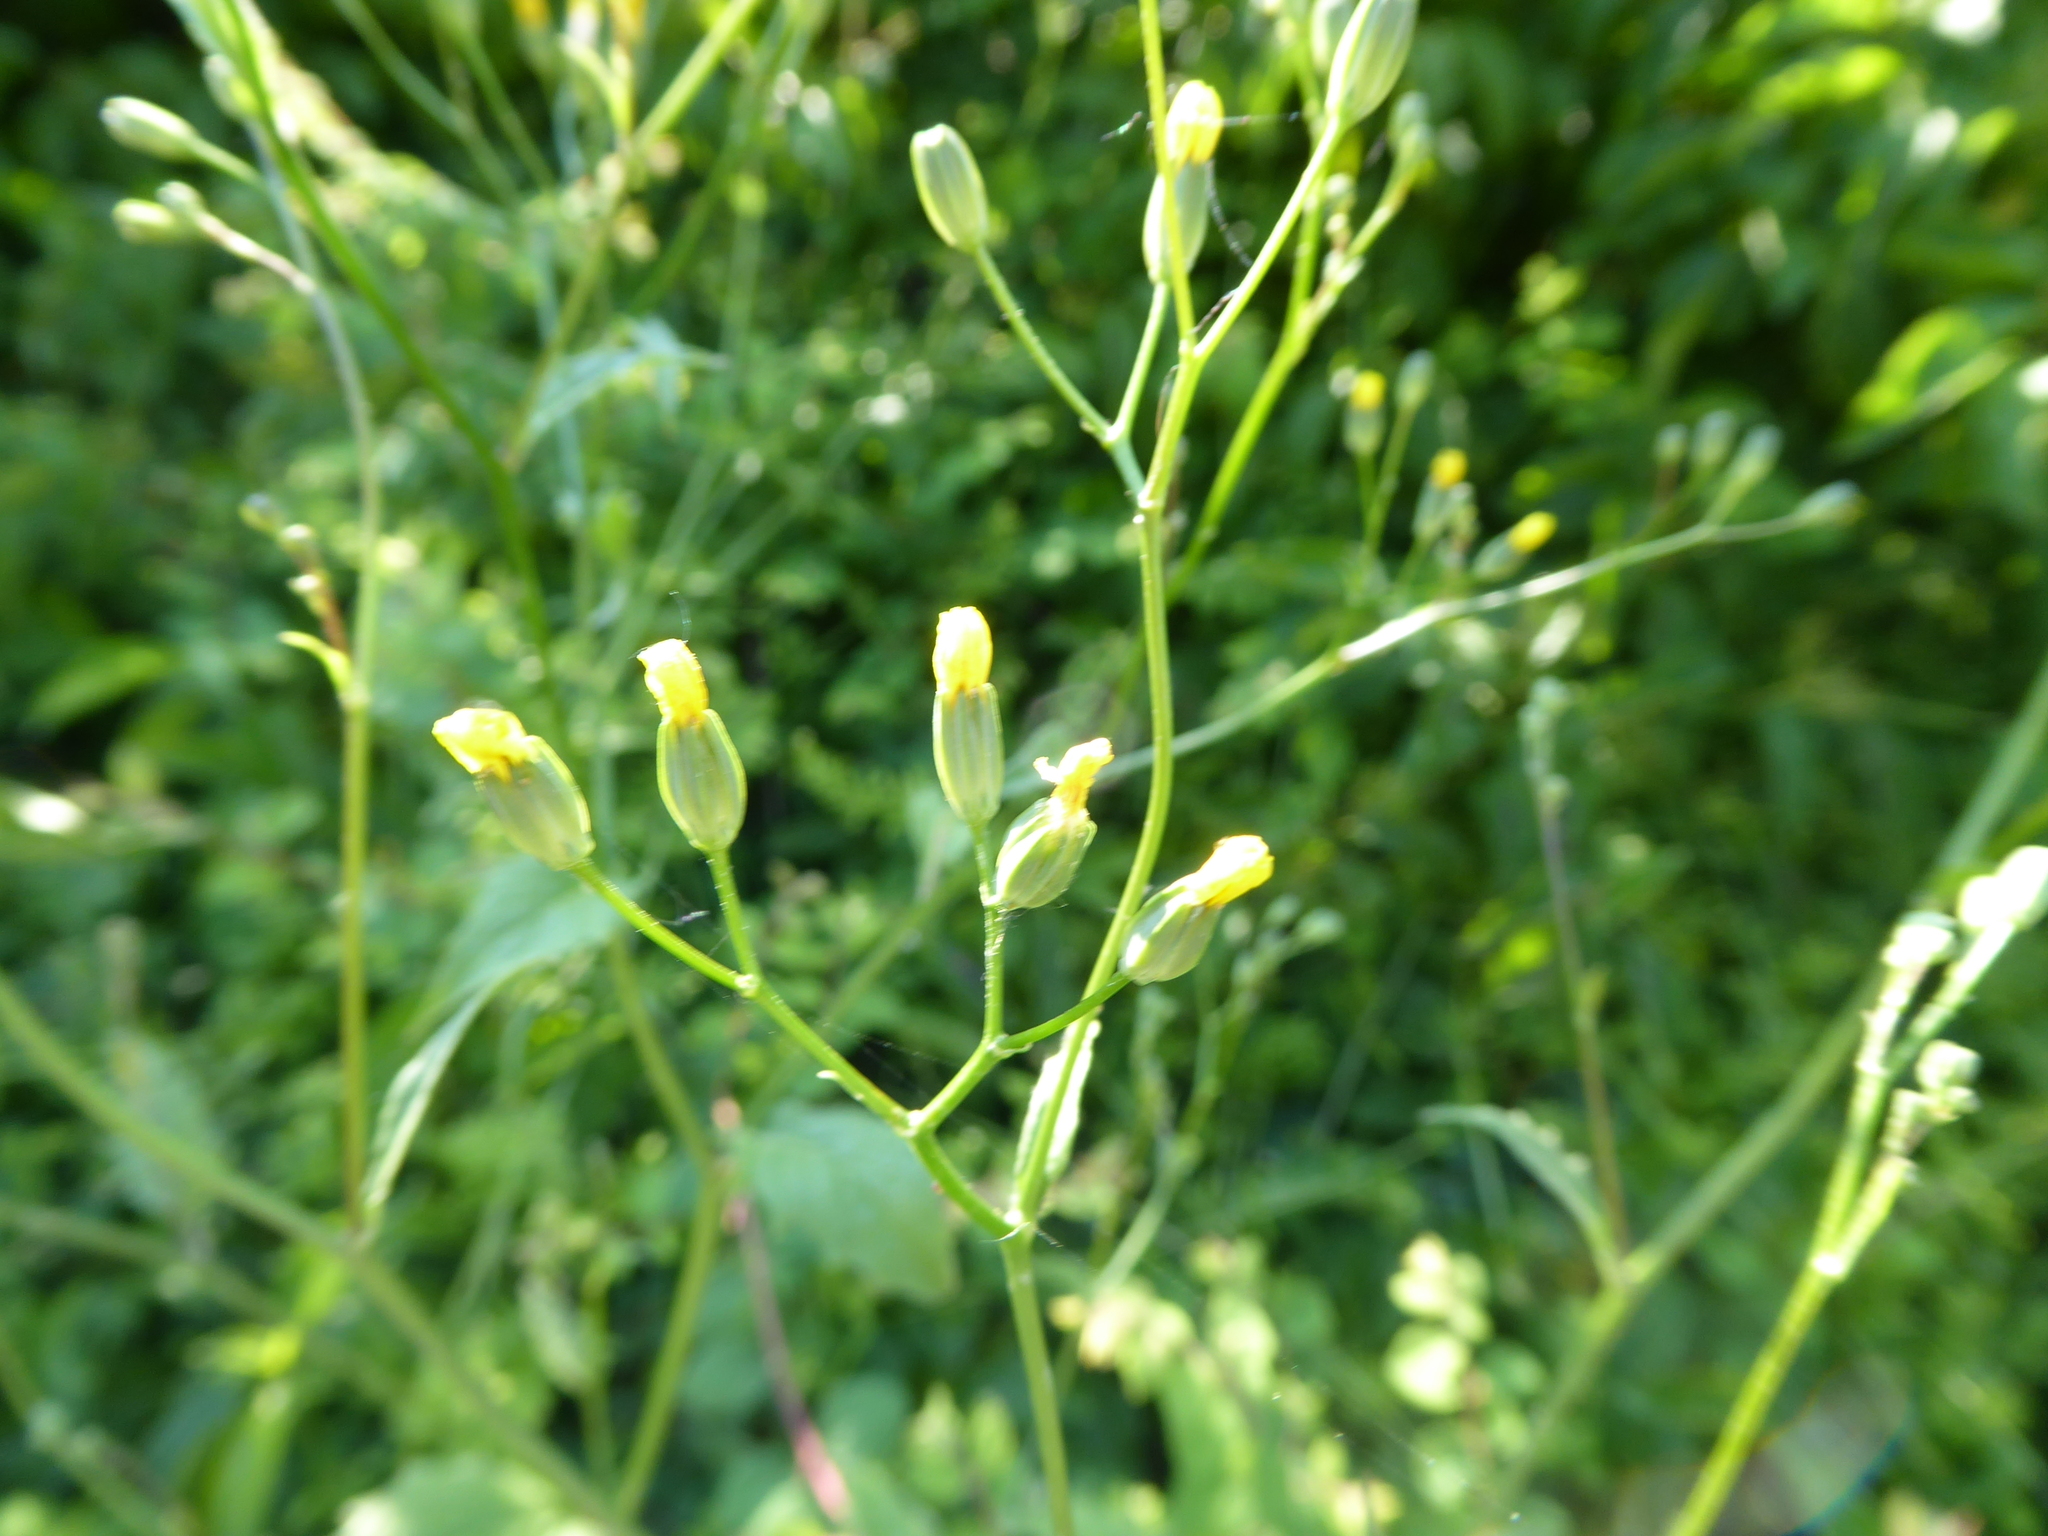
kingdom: Plantae
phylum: Tracheophyta
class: Magnoliopsida
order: Asterales
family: Asteraceae
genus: Lapsana
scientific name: Lapsana communis
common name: Nipplewort
